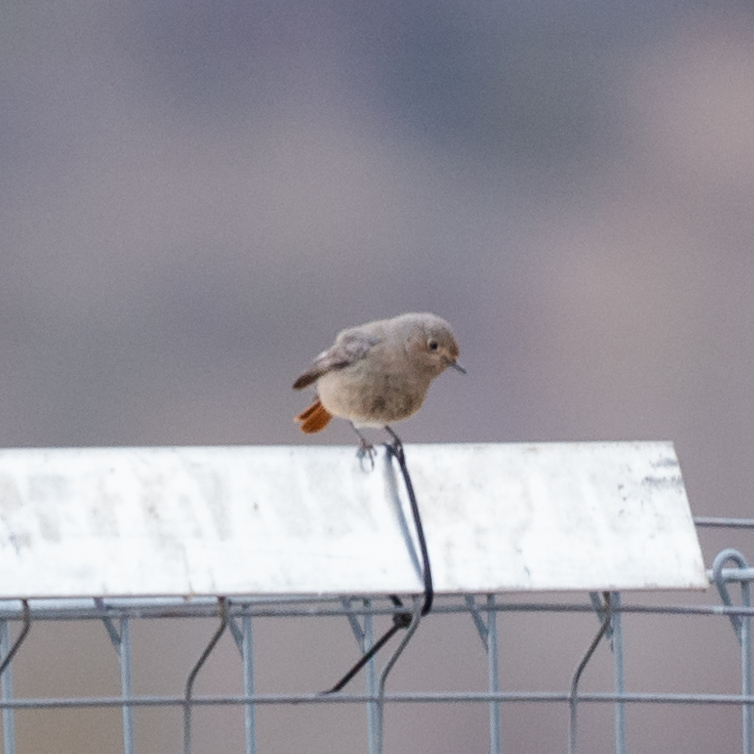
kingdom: Animalia
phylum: Chordata
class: Aves
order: Passeriformes
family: Muscicapidae
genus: Phoenicurus
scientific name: Phoenicurus ochruros
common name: Black redstart
